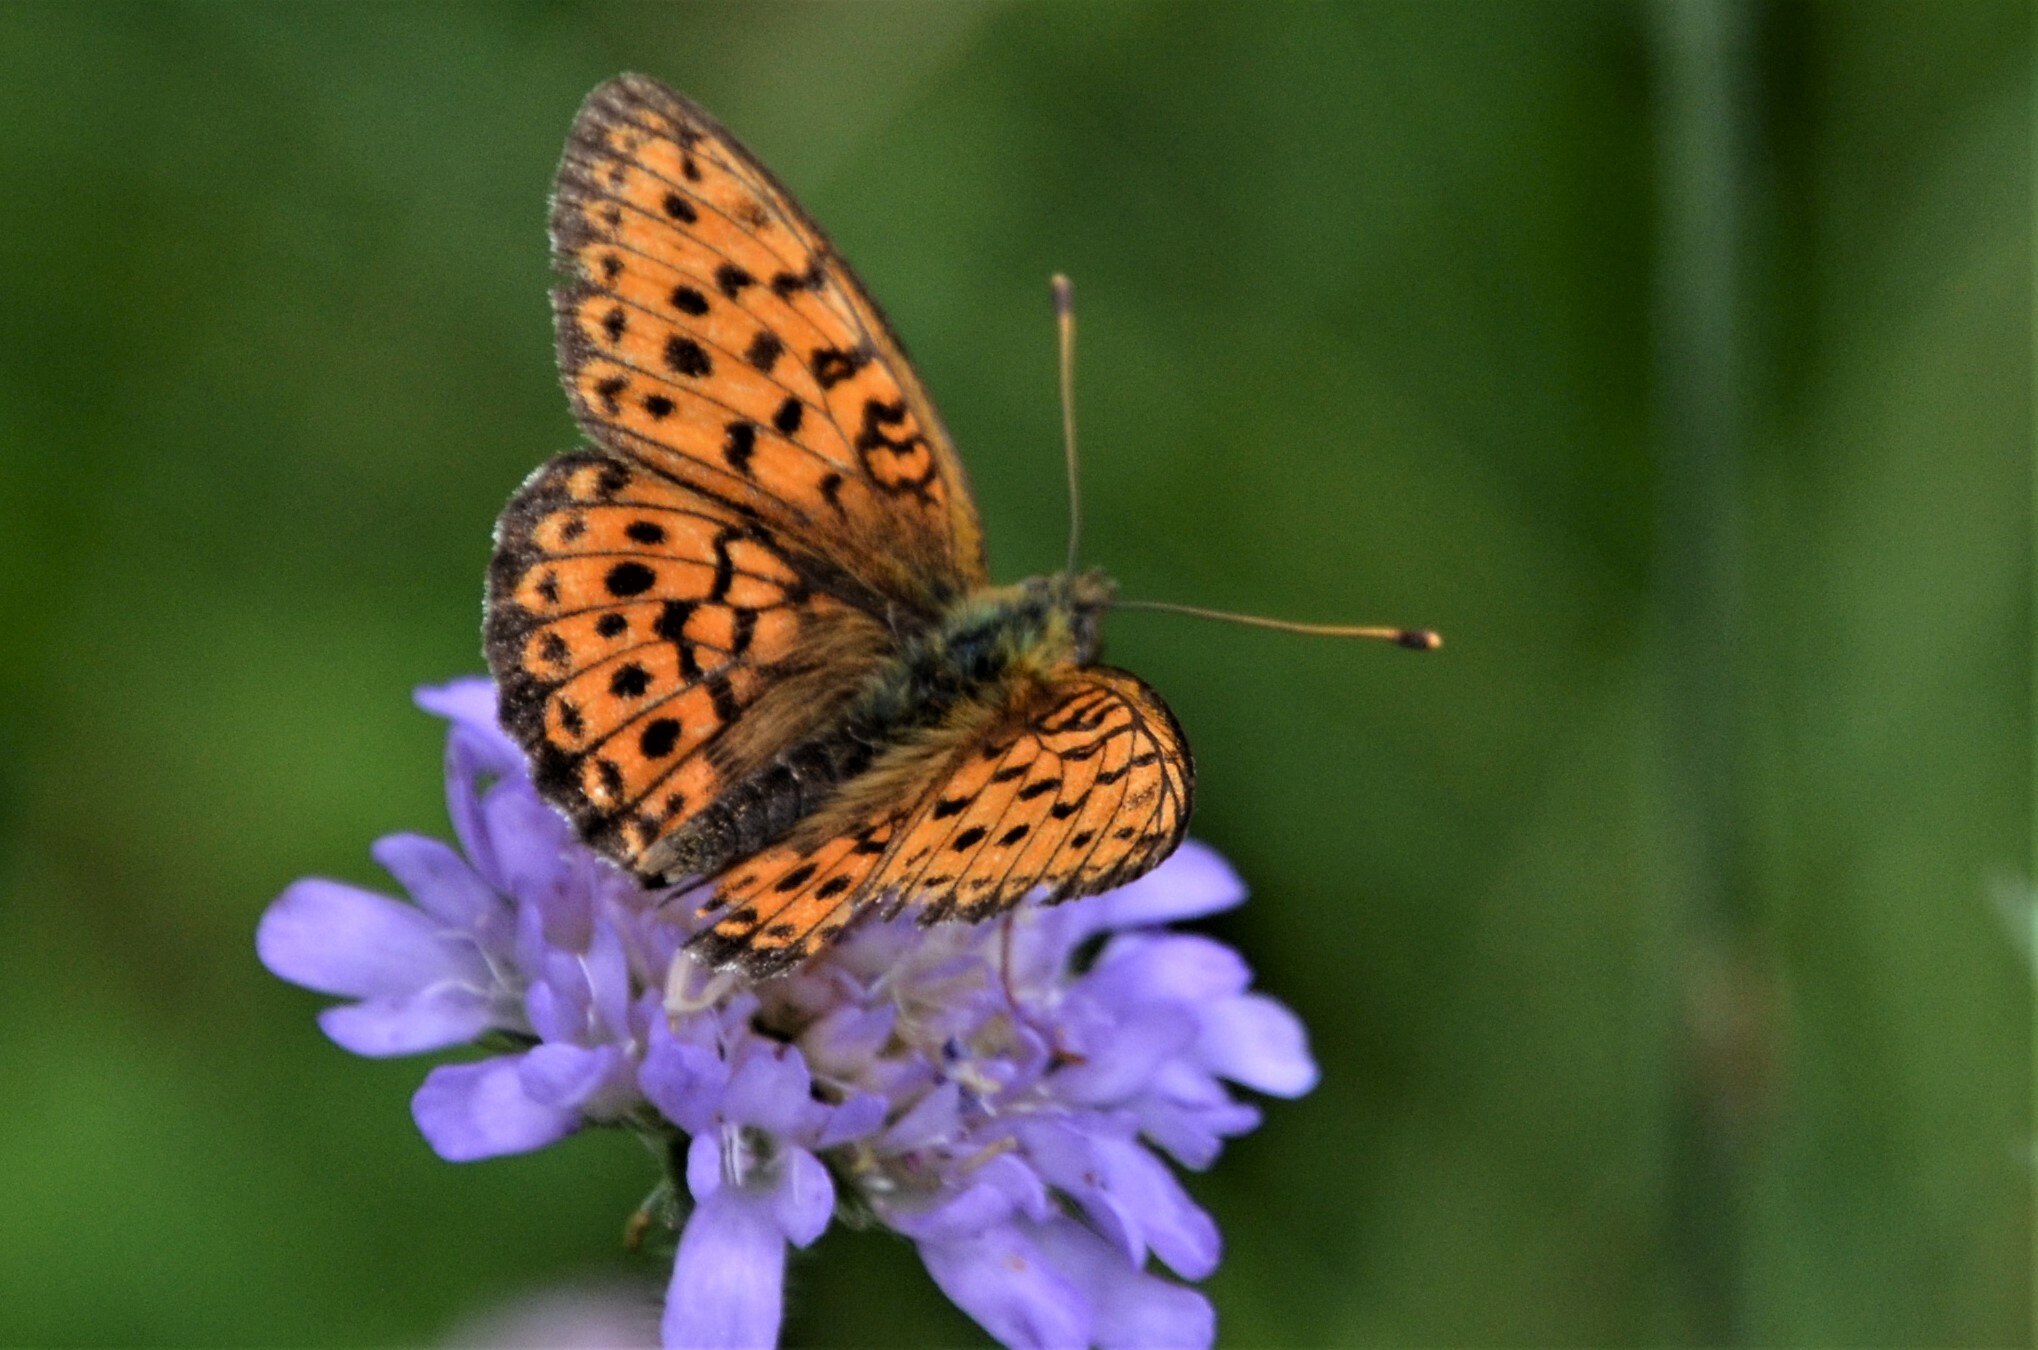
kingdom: Animalia
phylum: Arthropoda
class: Insecta
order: Lepidoptera
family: Nymphalidae
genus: Brenthis
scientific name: Brenthis ino
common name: Lesser marbled fritillary
